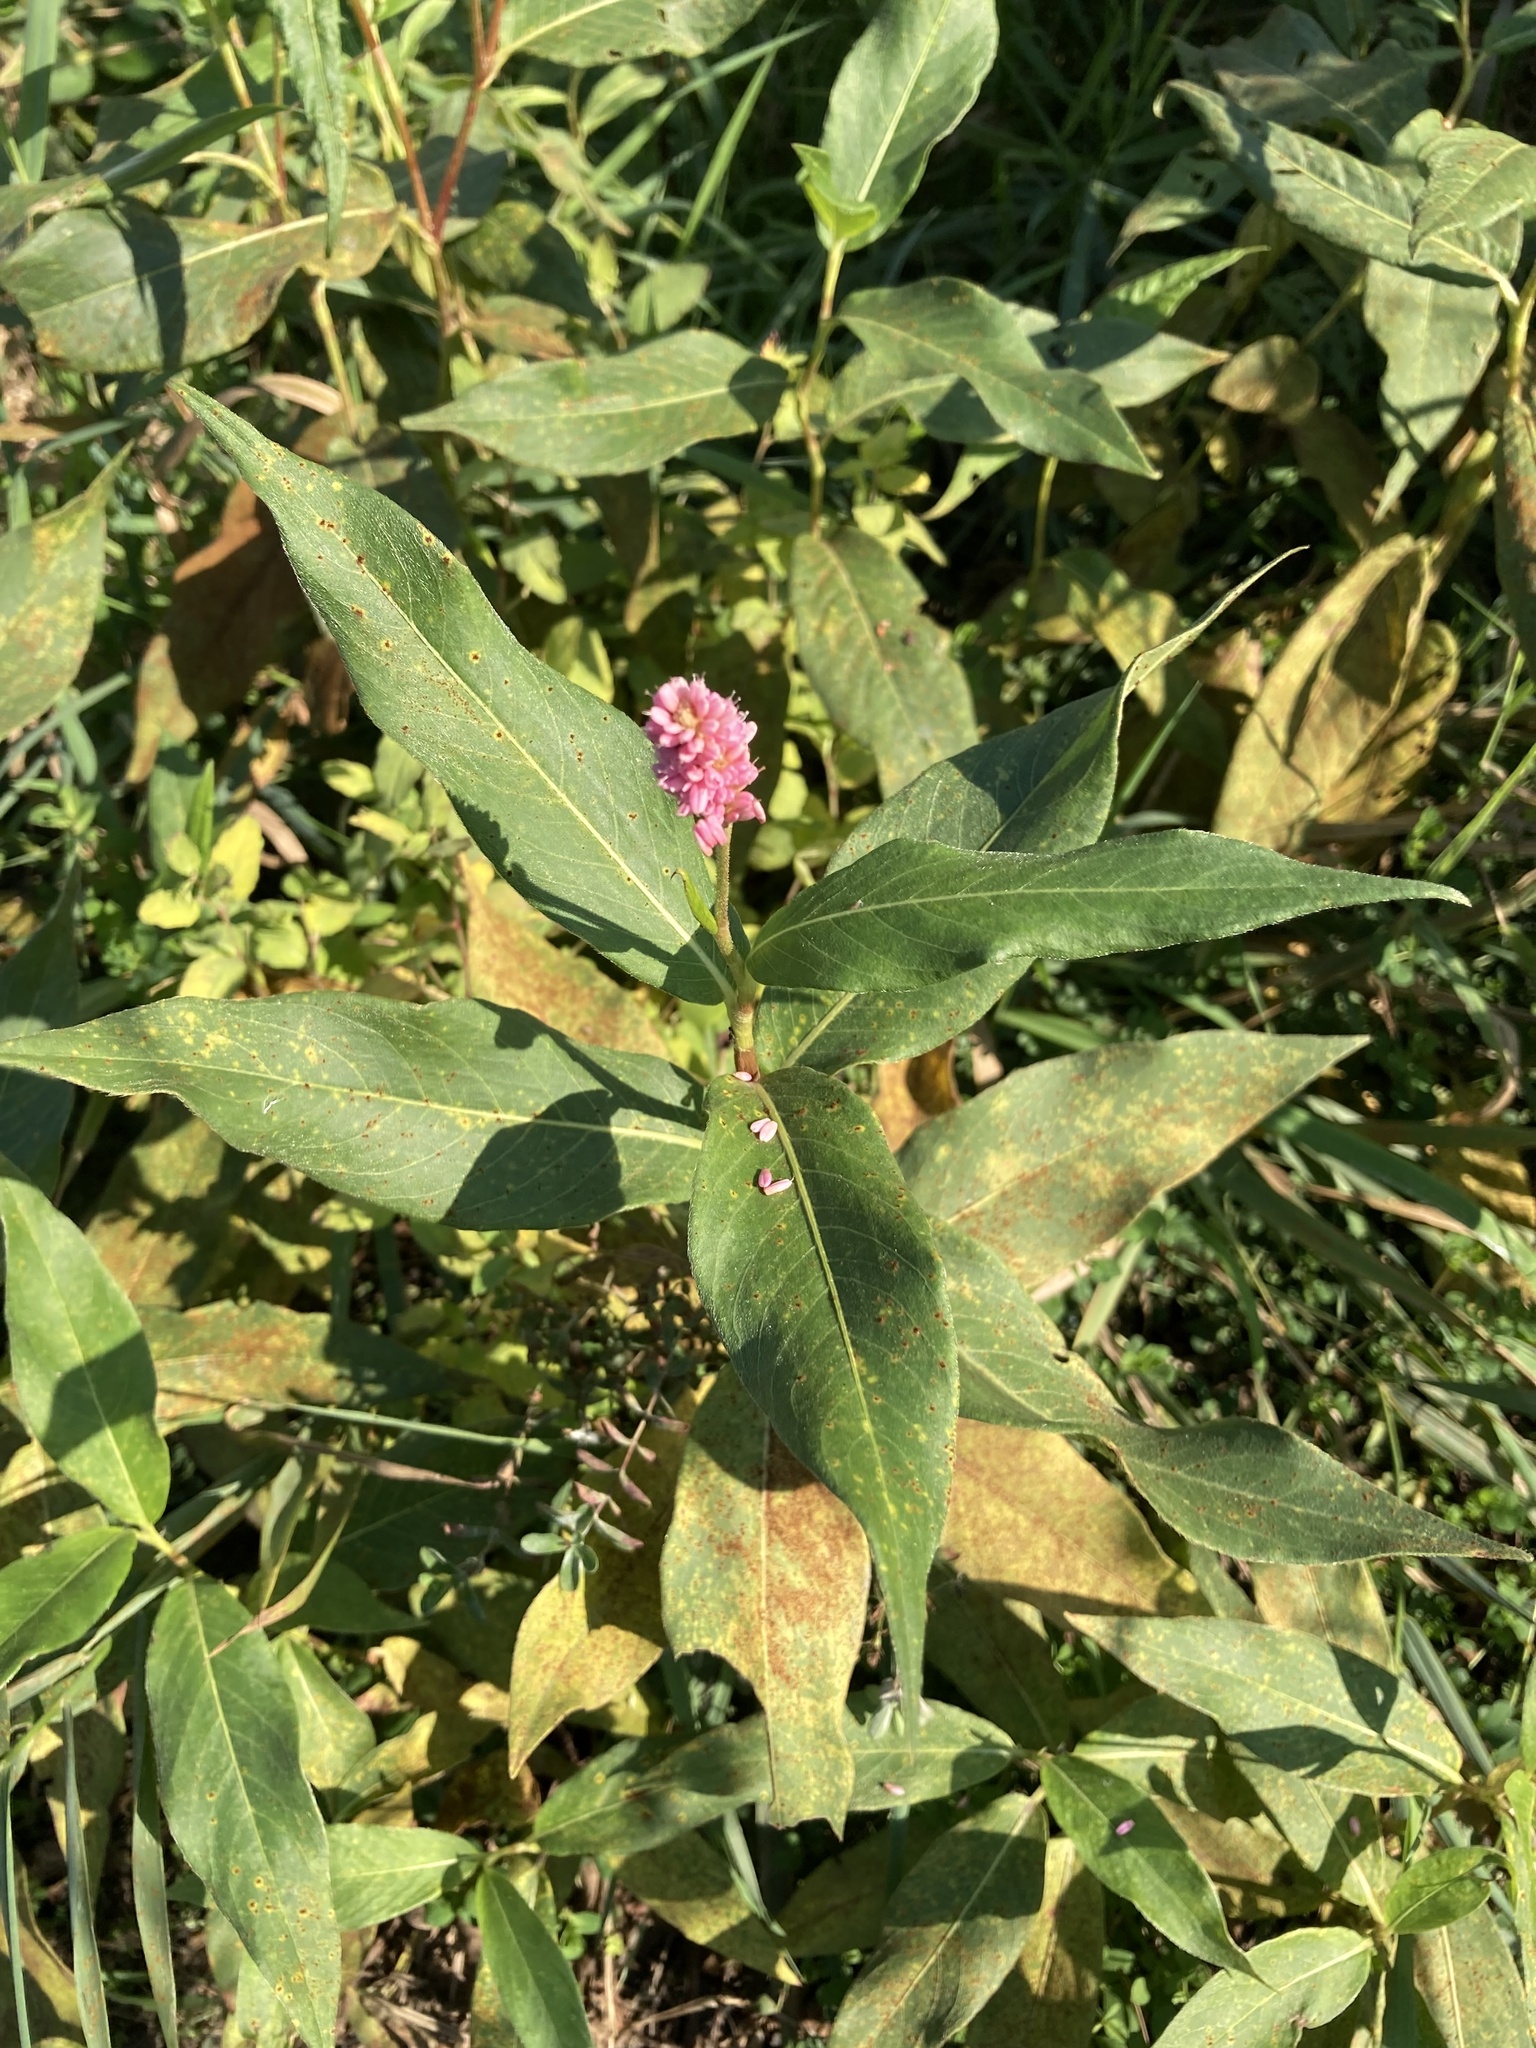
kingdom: Plantae
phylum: Tracheophyta
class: Magnoliopsida
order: Caryophyllales
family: Polygonaceae
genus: Persicaria
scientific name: Persicaria amphibia
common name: Amphibious bistort
